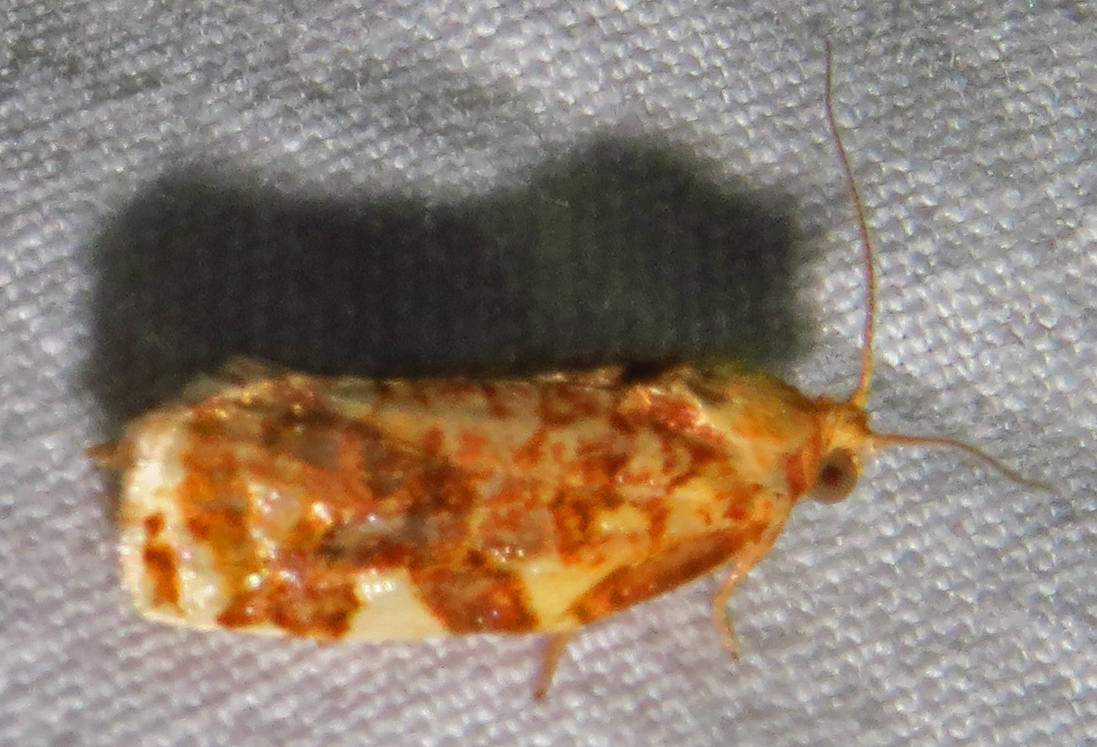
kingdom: Animalia
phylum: Arthropoda
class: Insecta
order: Lepidoptera
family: Tortricidae
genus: Archips
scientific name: Archips argyrospila
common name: Fruit-tree leafroller moth
